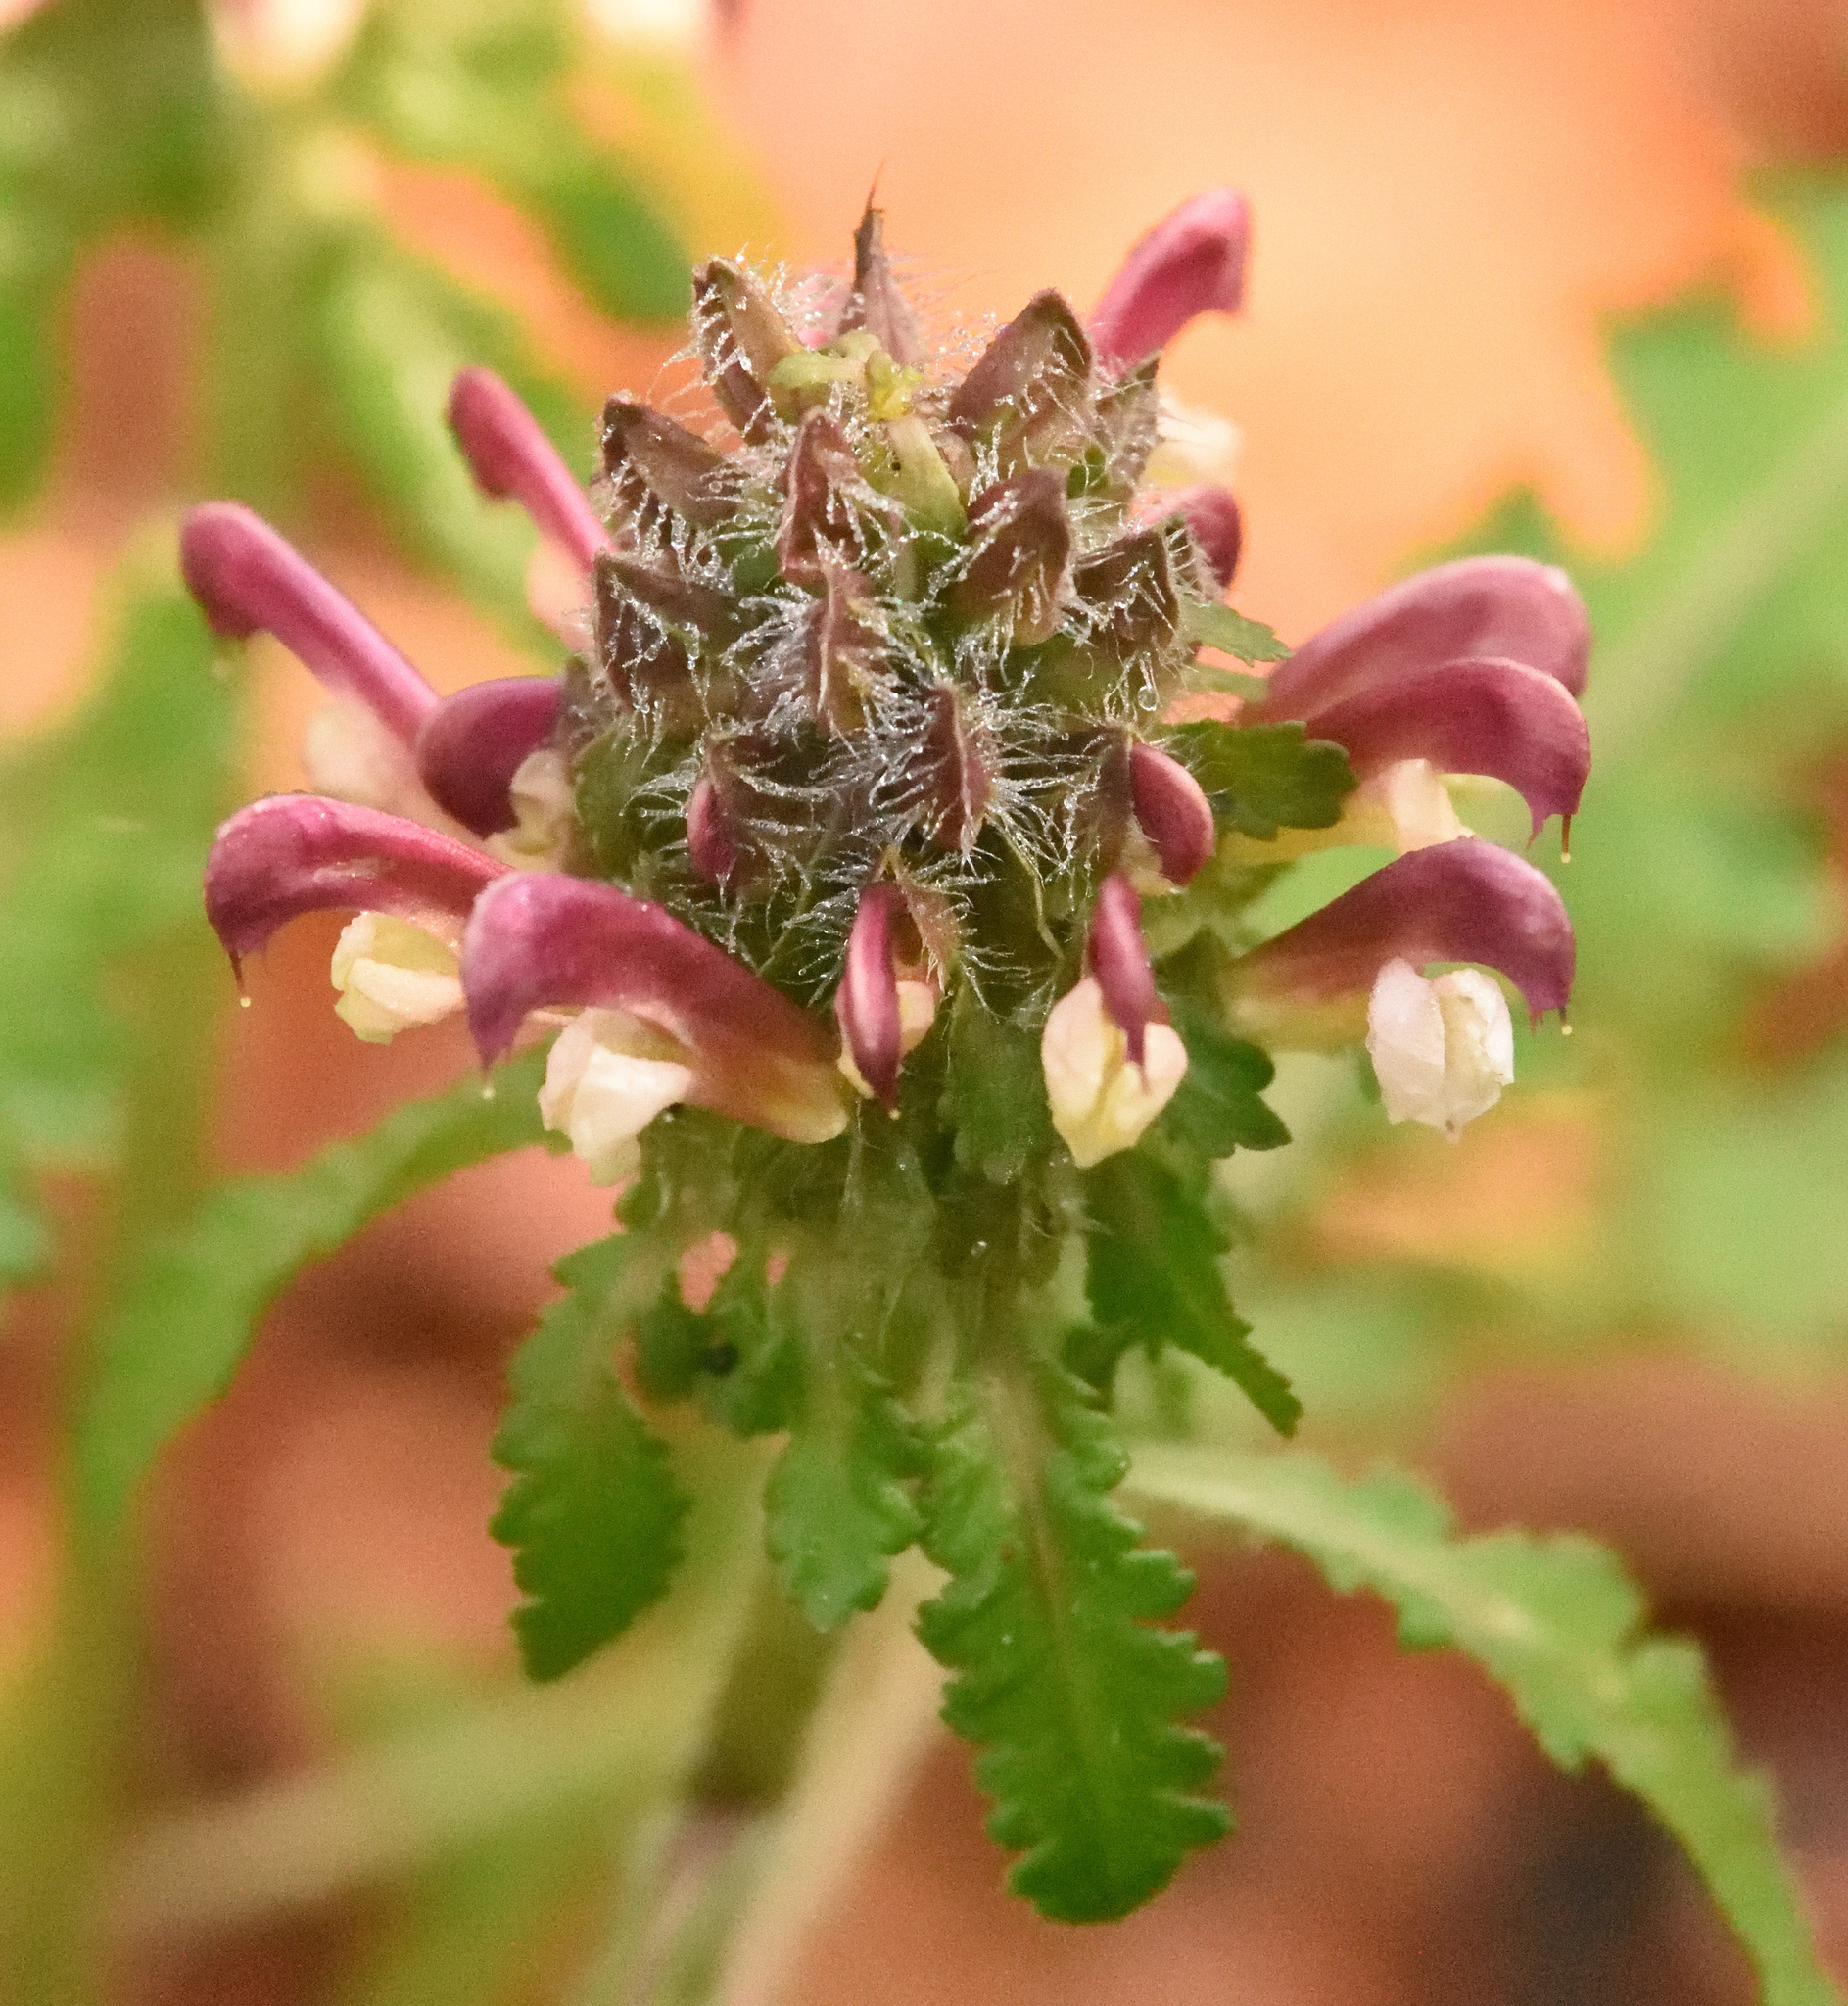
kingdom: Plantae
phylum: Tracheophyta
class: Magnoliopsida
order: Lamiales
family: Orobanchaceae
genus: Pedicularis
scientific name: Pedicularis canadensis
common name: Early lousewort
